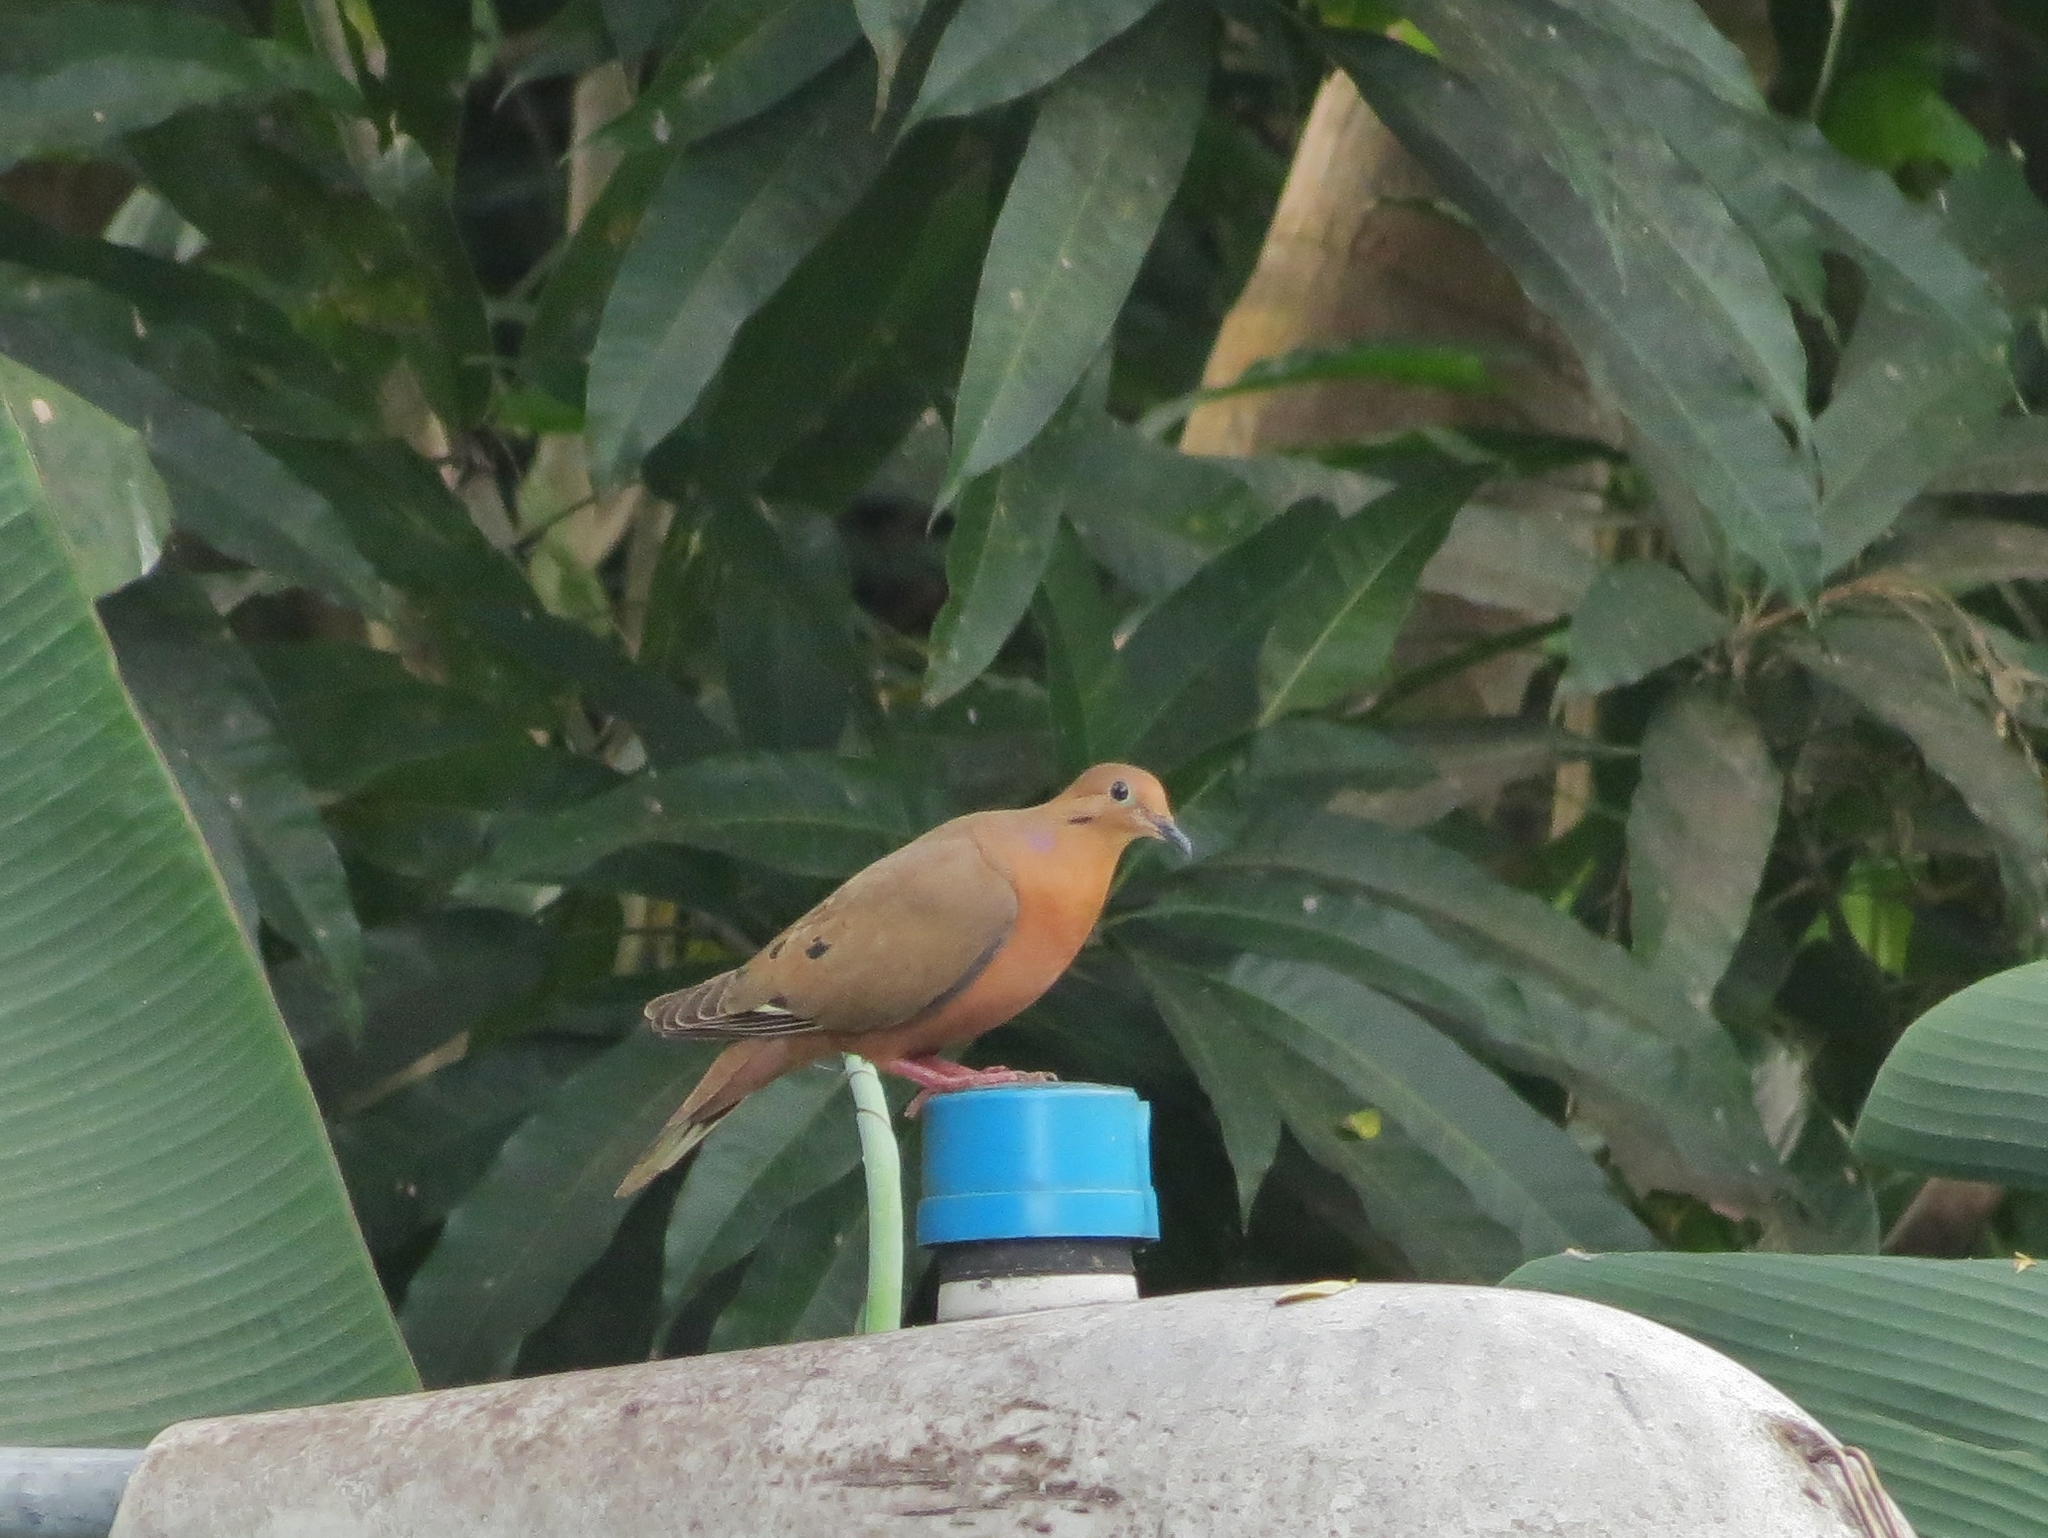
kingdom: Animalia
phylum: Chordata
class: Aves
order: Columbiformes
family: Columbidae
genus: Zenaida
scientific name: Zenaida aurita
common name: Zenaida dove
